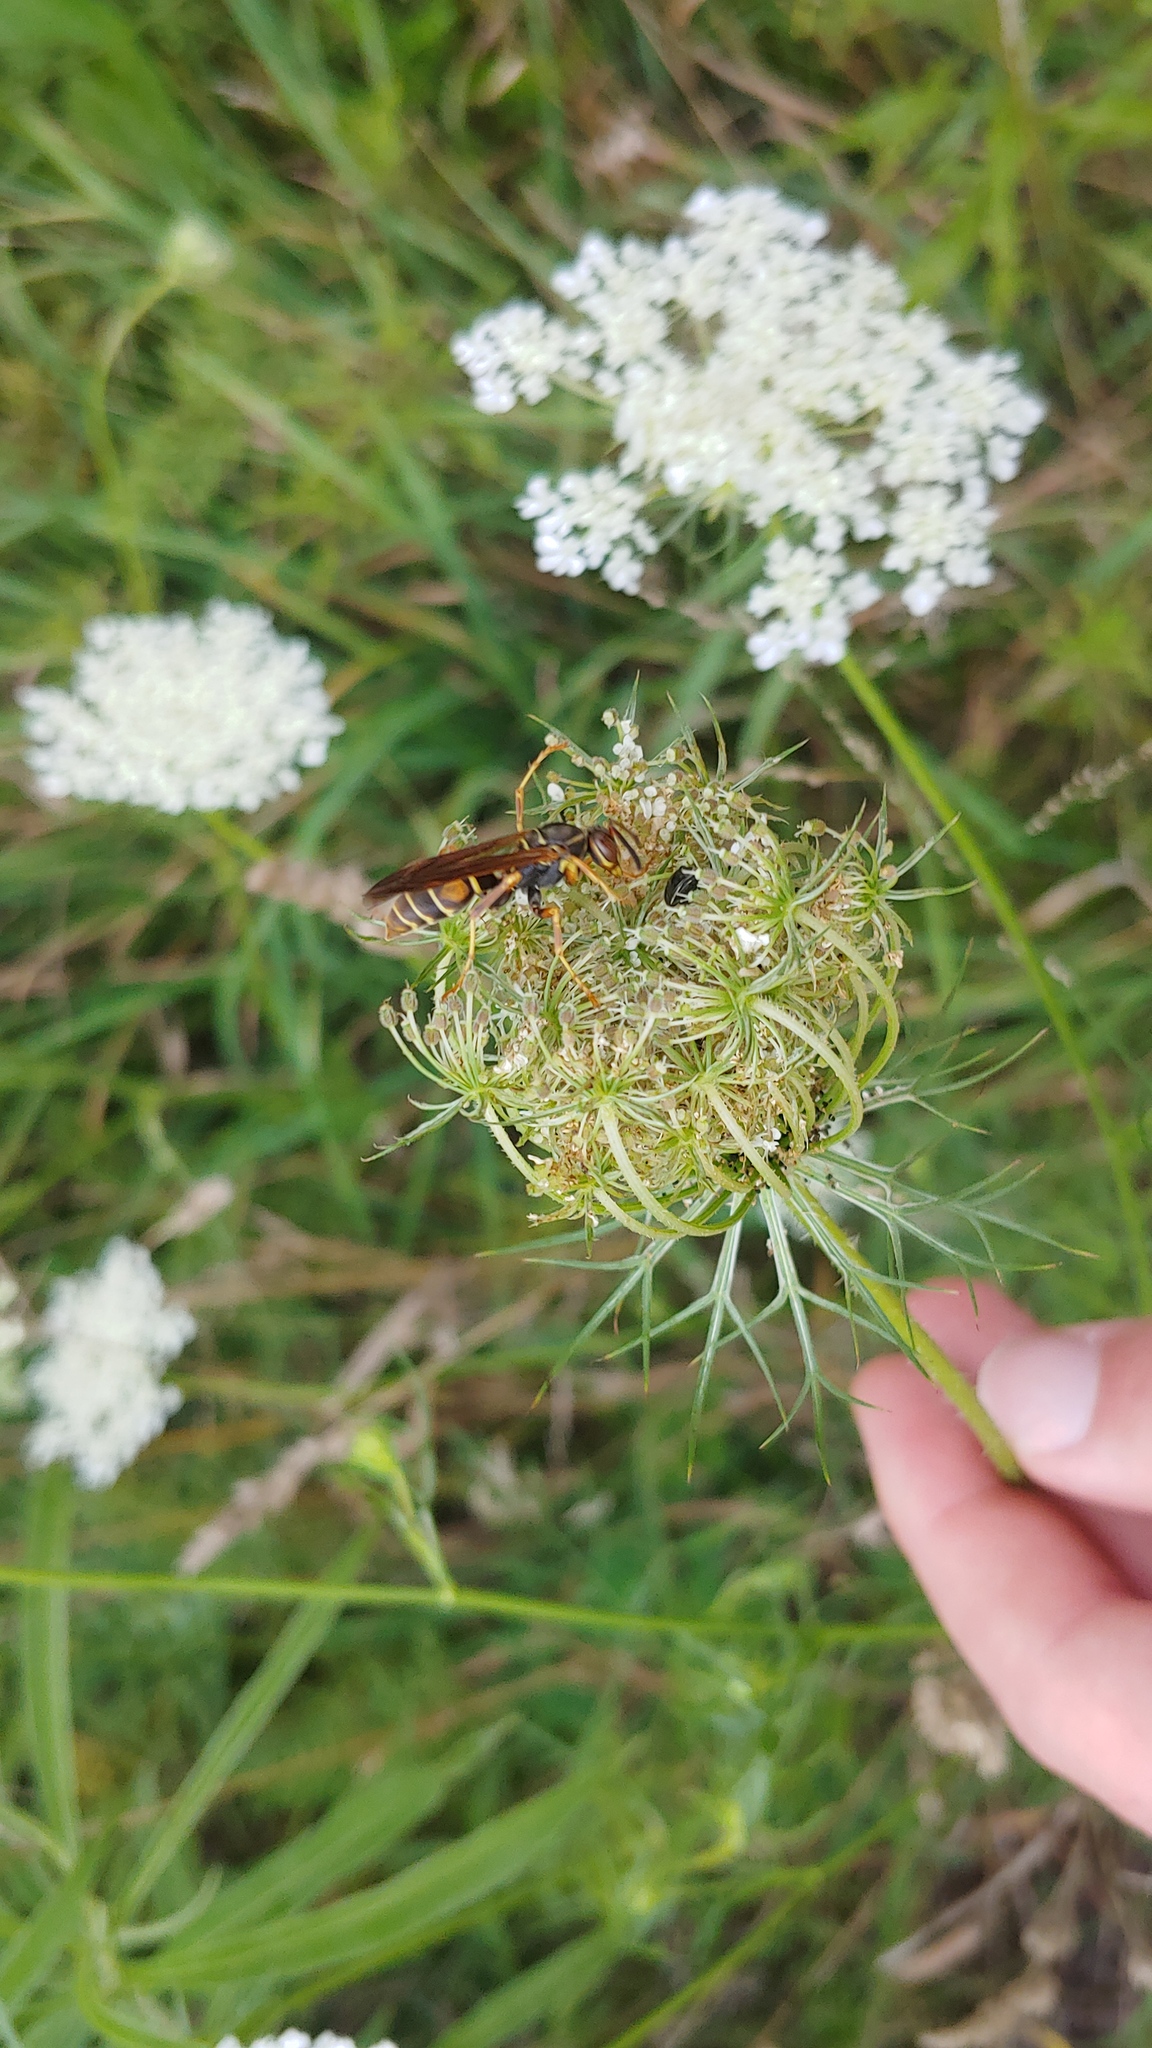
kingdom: Animalia
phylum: Arthropoda
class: Insecta
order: Hymenoptera
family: Eumenidae
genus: Polistes
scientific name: Polistes fuscatus
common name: Dark paper wasp
